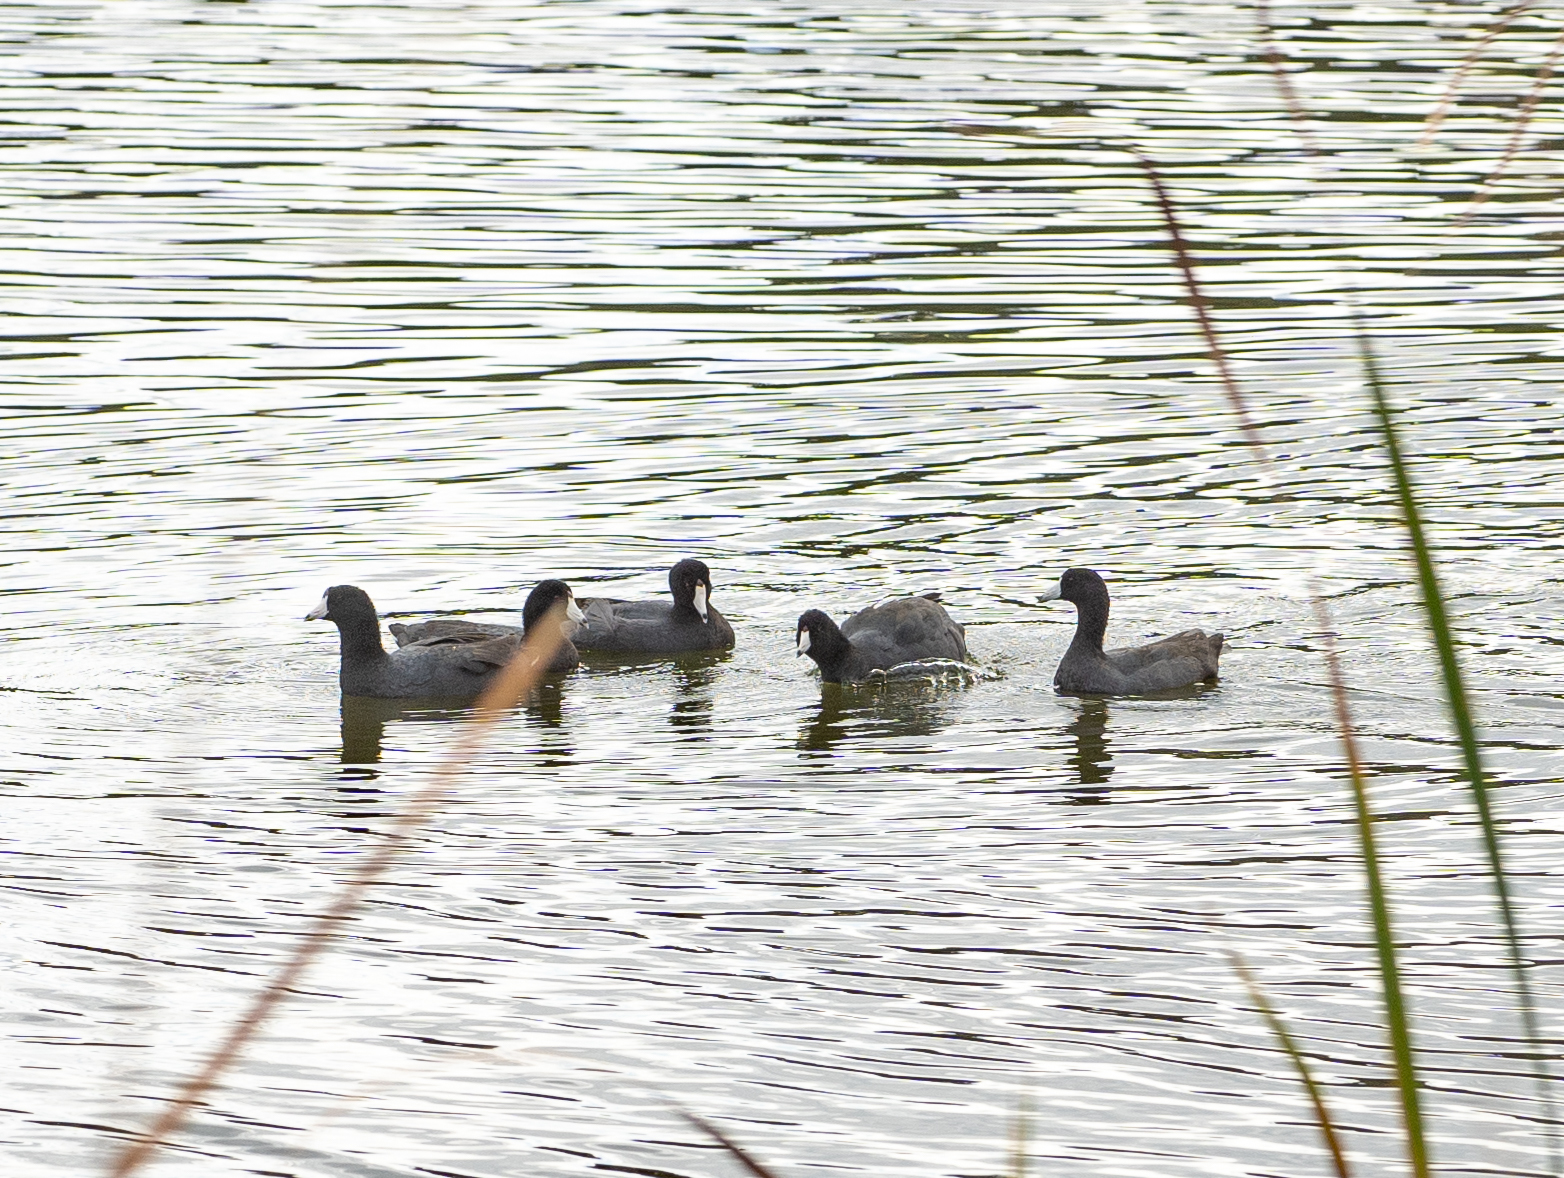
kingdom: Animalia
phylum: Chordata
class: Aves
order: Gruiformes
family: Rallidae
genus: Fulica
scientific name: Fulica americana
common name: American coot
